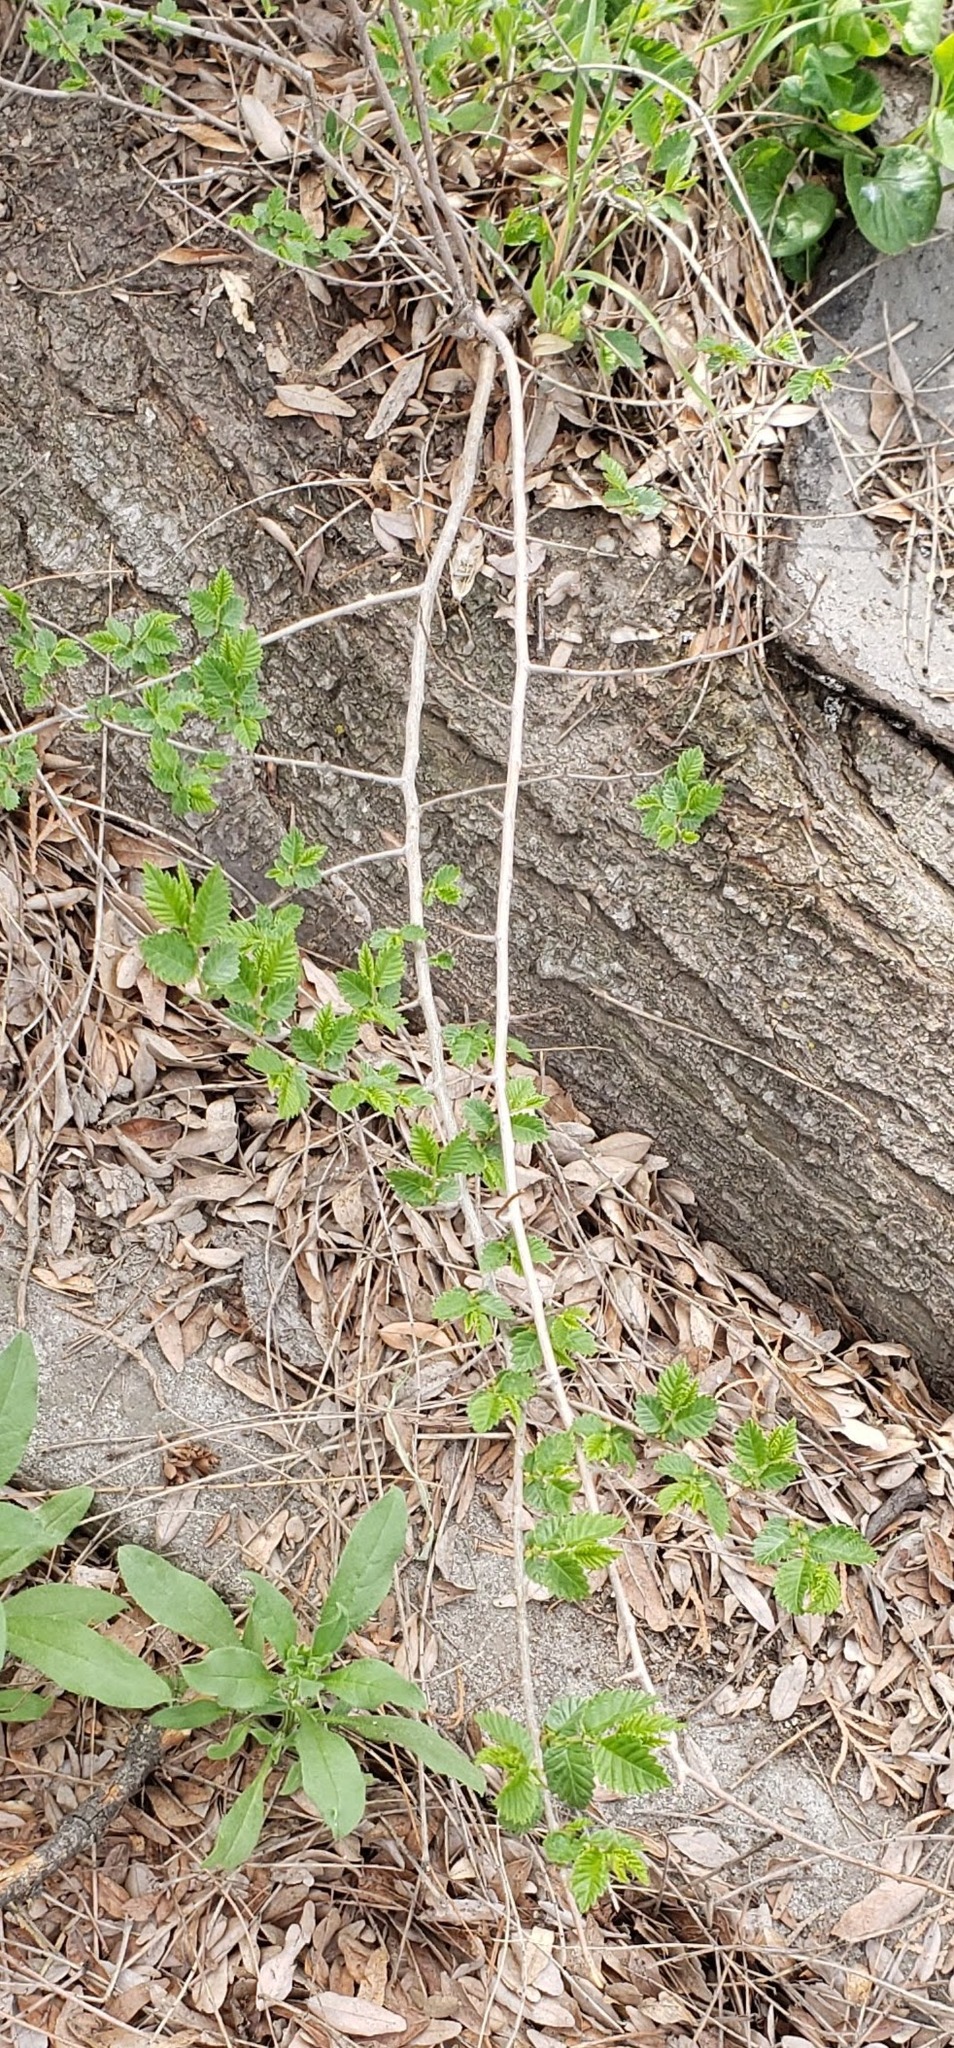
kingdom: Plantae
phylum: Tracheophyta
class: Magnoliopsida
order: Rosales
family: Ulmaceae
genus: Ulmus
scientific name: Ulmus pumila
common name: Siberian elm
